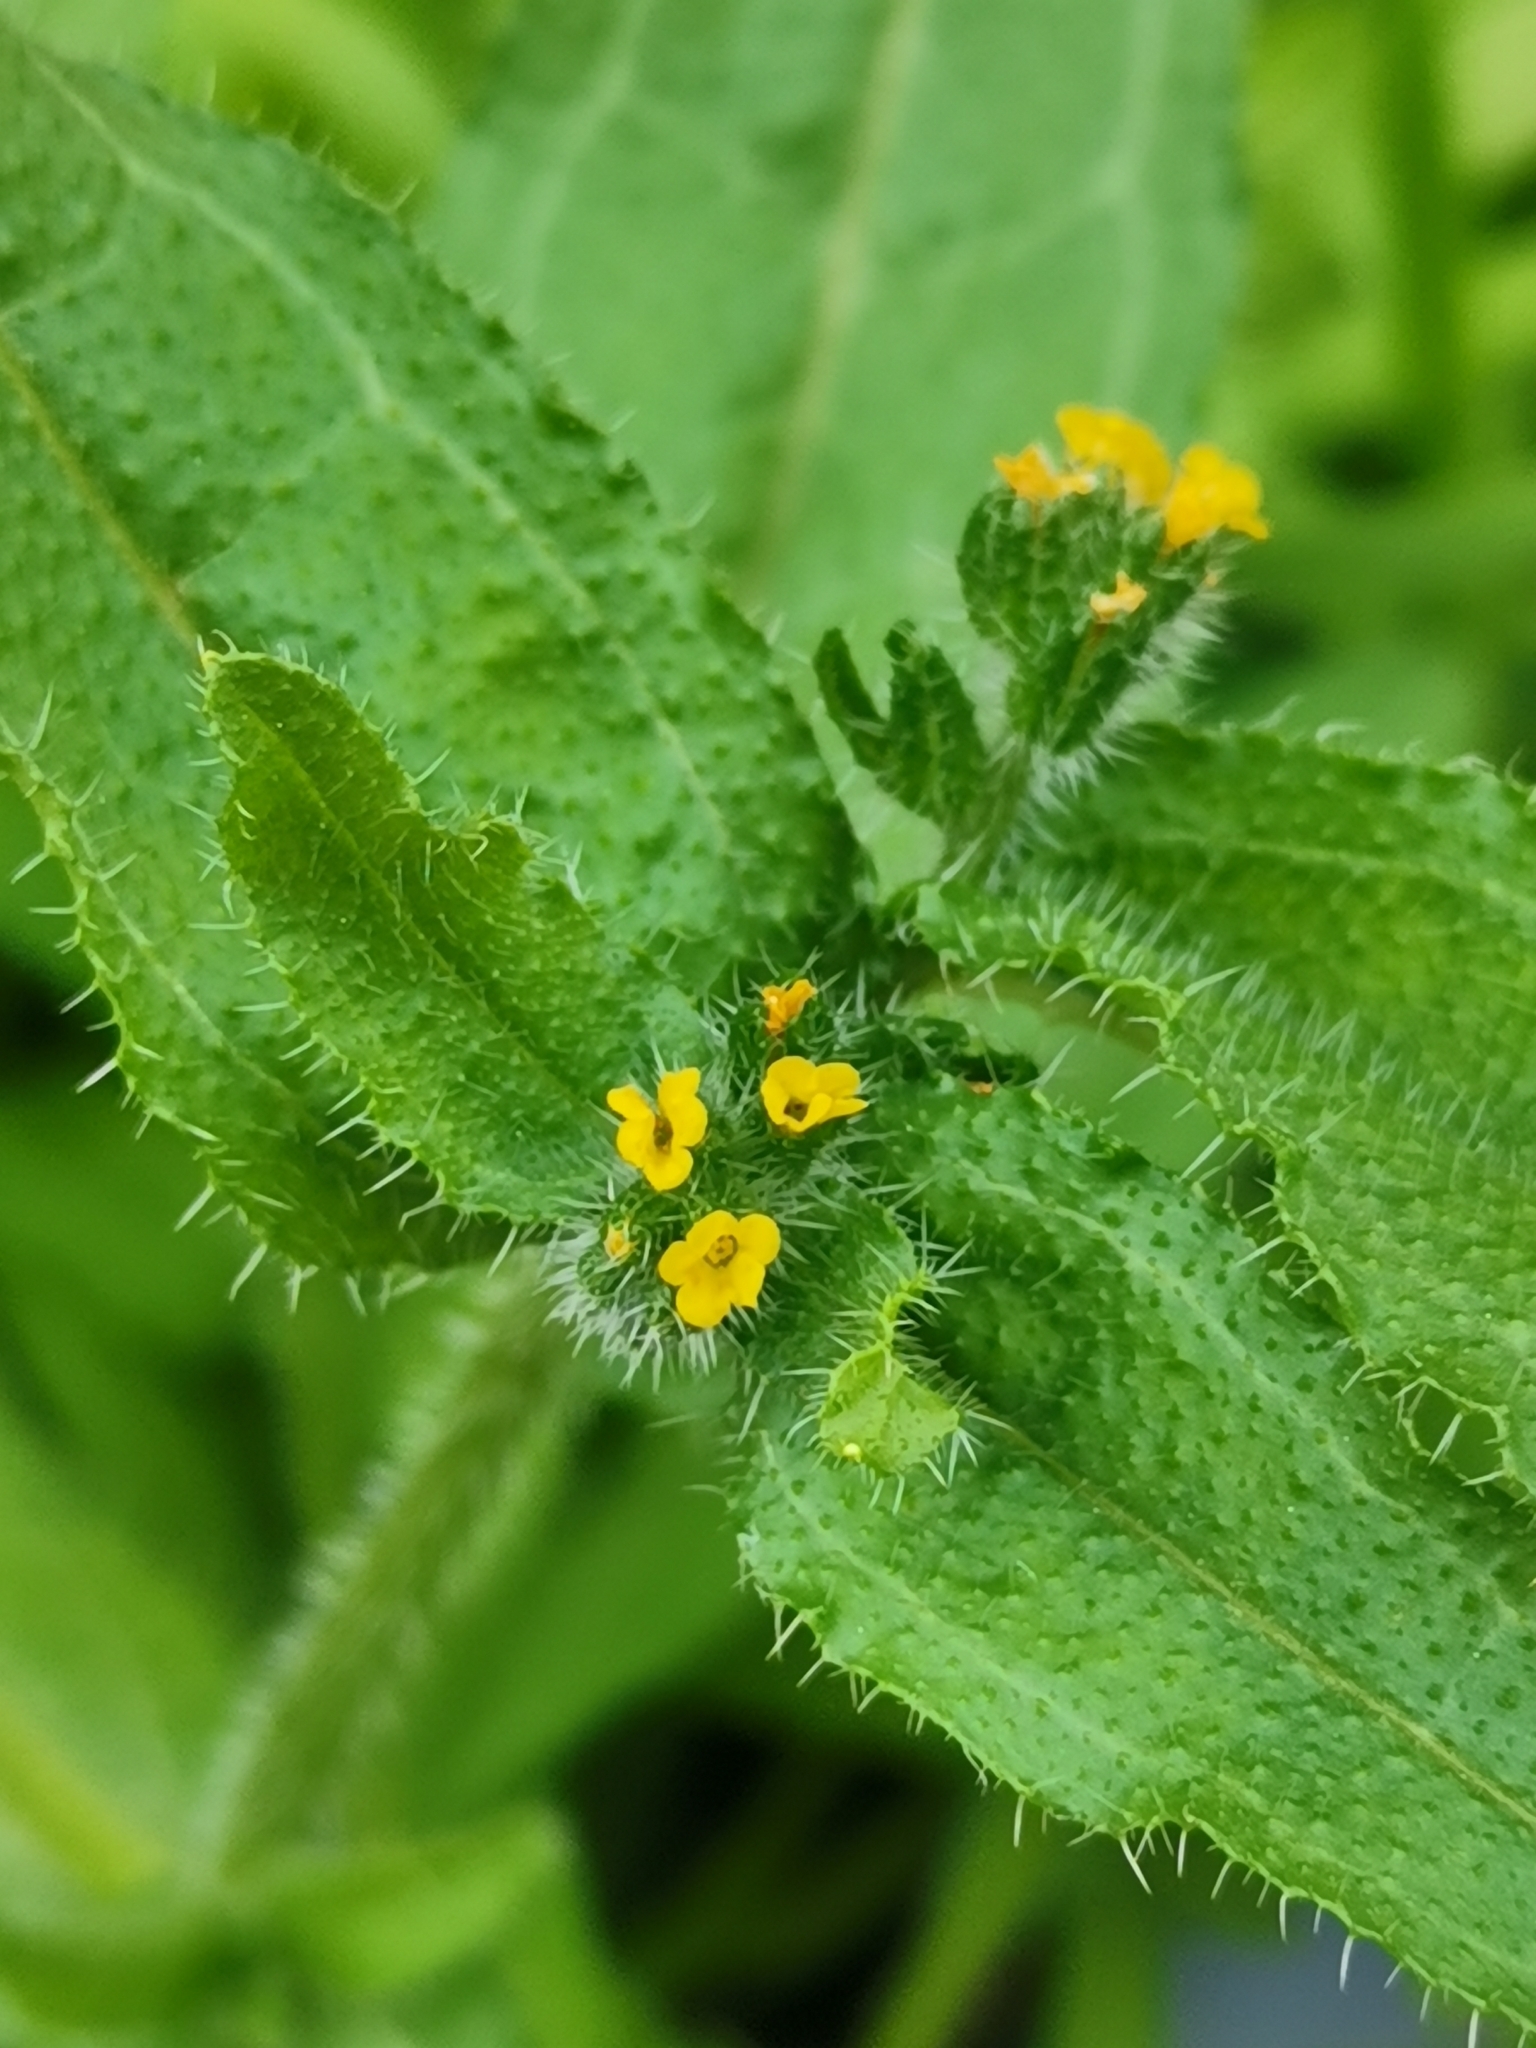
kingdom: Plantae
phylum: Tracheophyta
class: Magnoliopsida
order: Boraginales
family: Boraginaceae
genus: Amsinckia
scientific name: Amsinckia menziesii
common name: Menzies' fiddleneck
